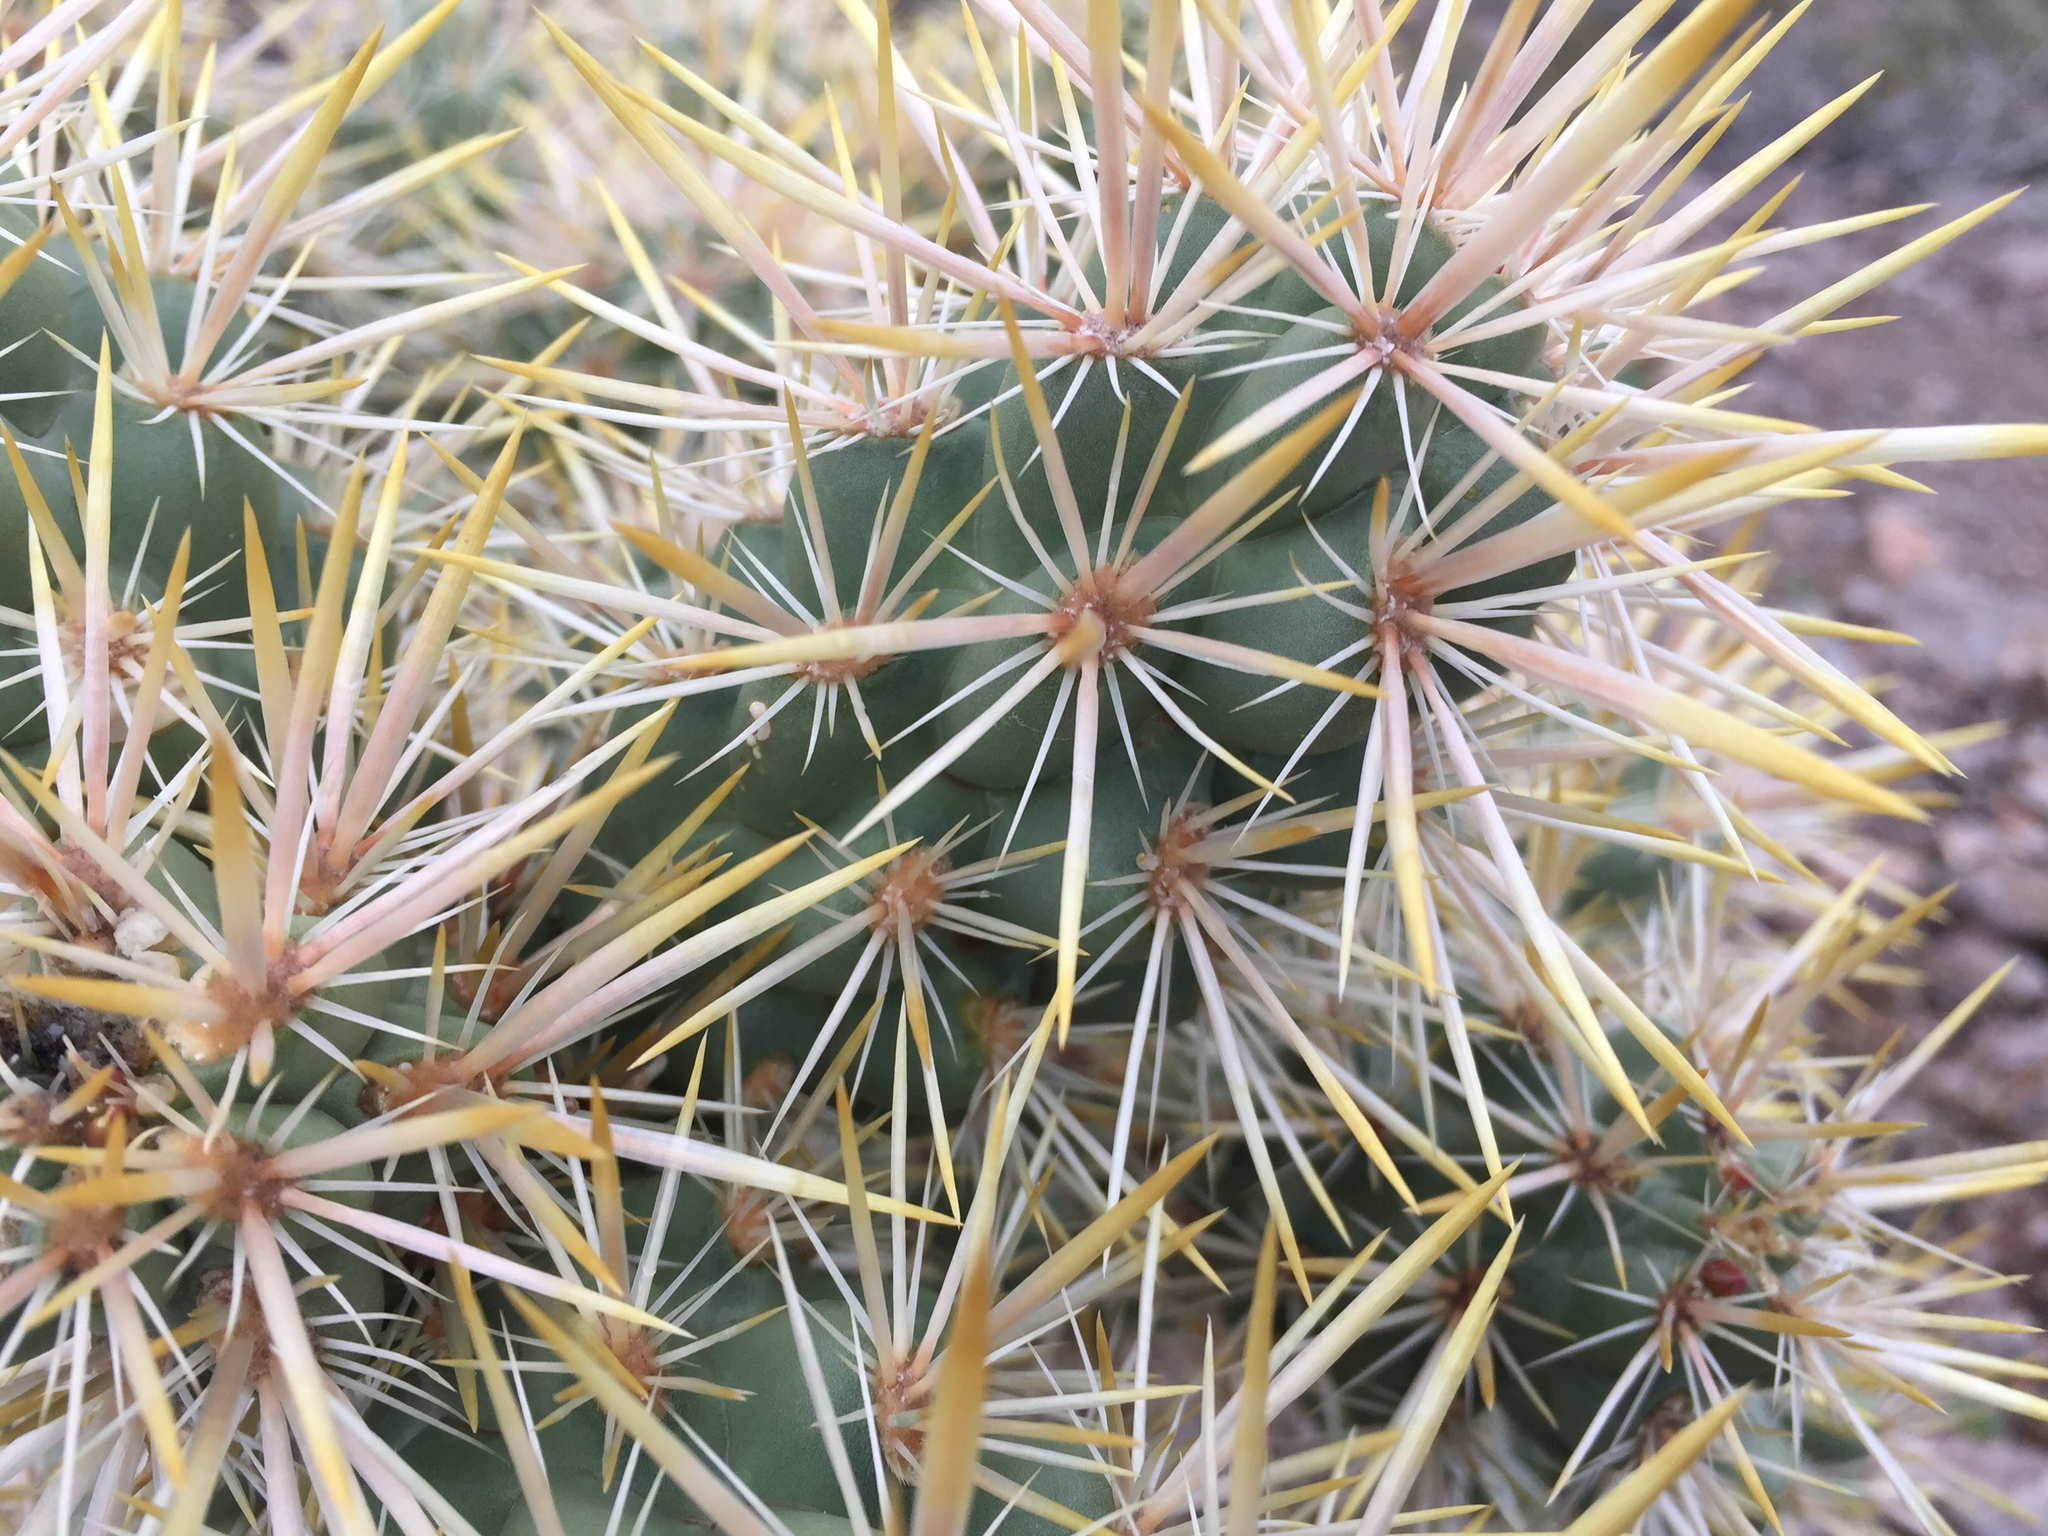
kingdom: Plantae
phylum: Tracheophyta
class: Magnoliopsida
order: Caryophyllales
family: Cactaceae
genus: Cylindropuntia
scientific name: Cylindropuntia echinocarpa
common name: Ground cholla
